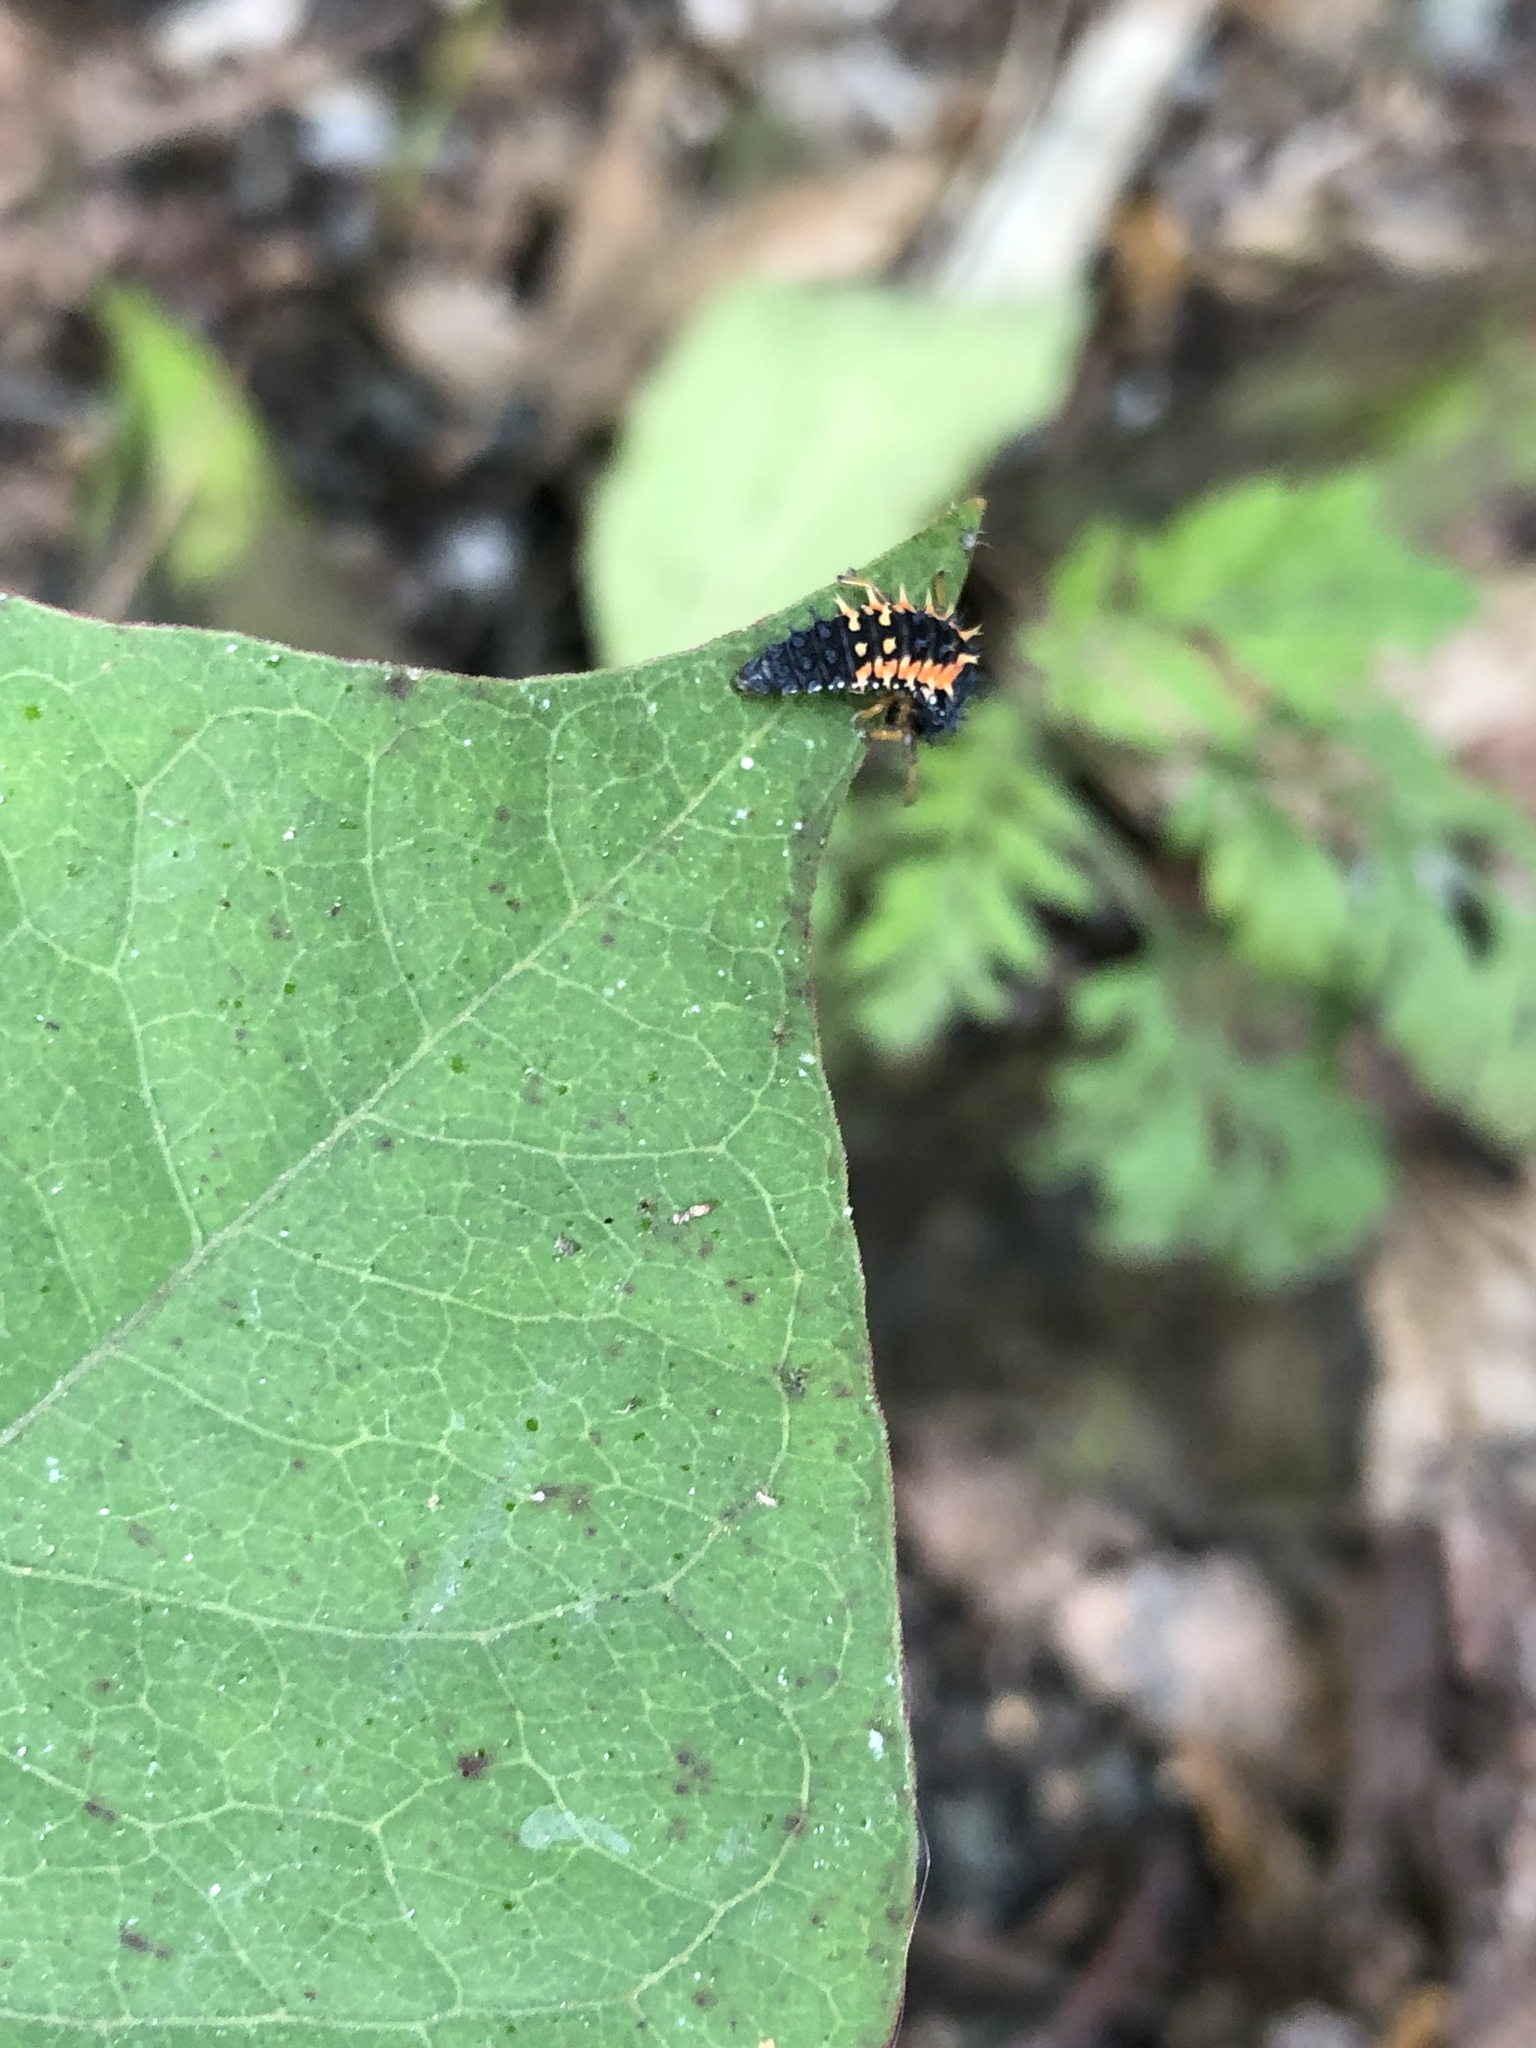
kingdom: Animalia
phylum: Arthropoda
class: Insecta
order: Coleoptera
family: Coccinellidae
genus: Harmonia
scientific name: Harmonia axyridis
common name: Harlequin ladybird
